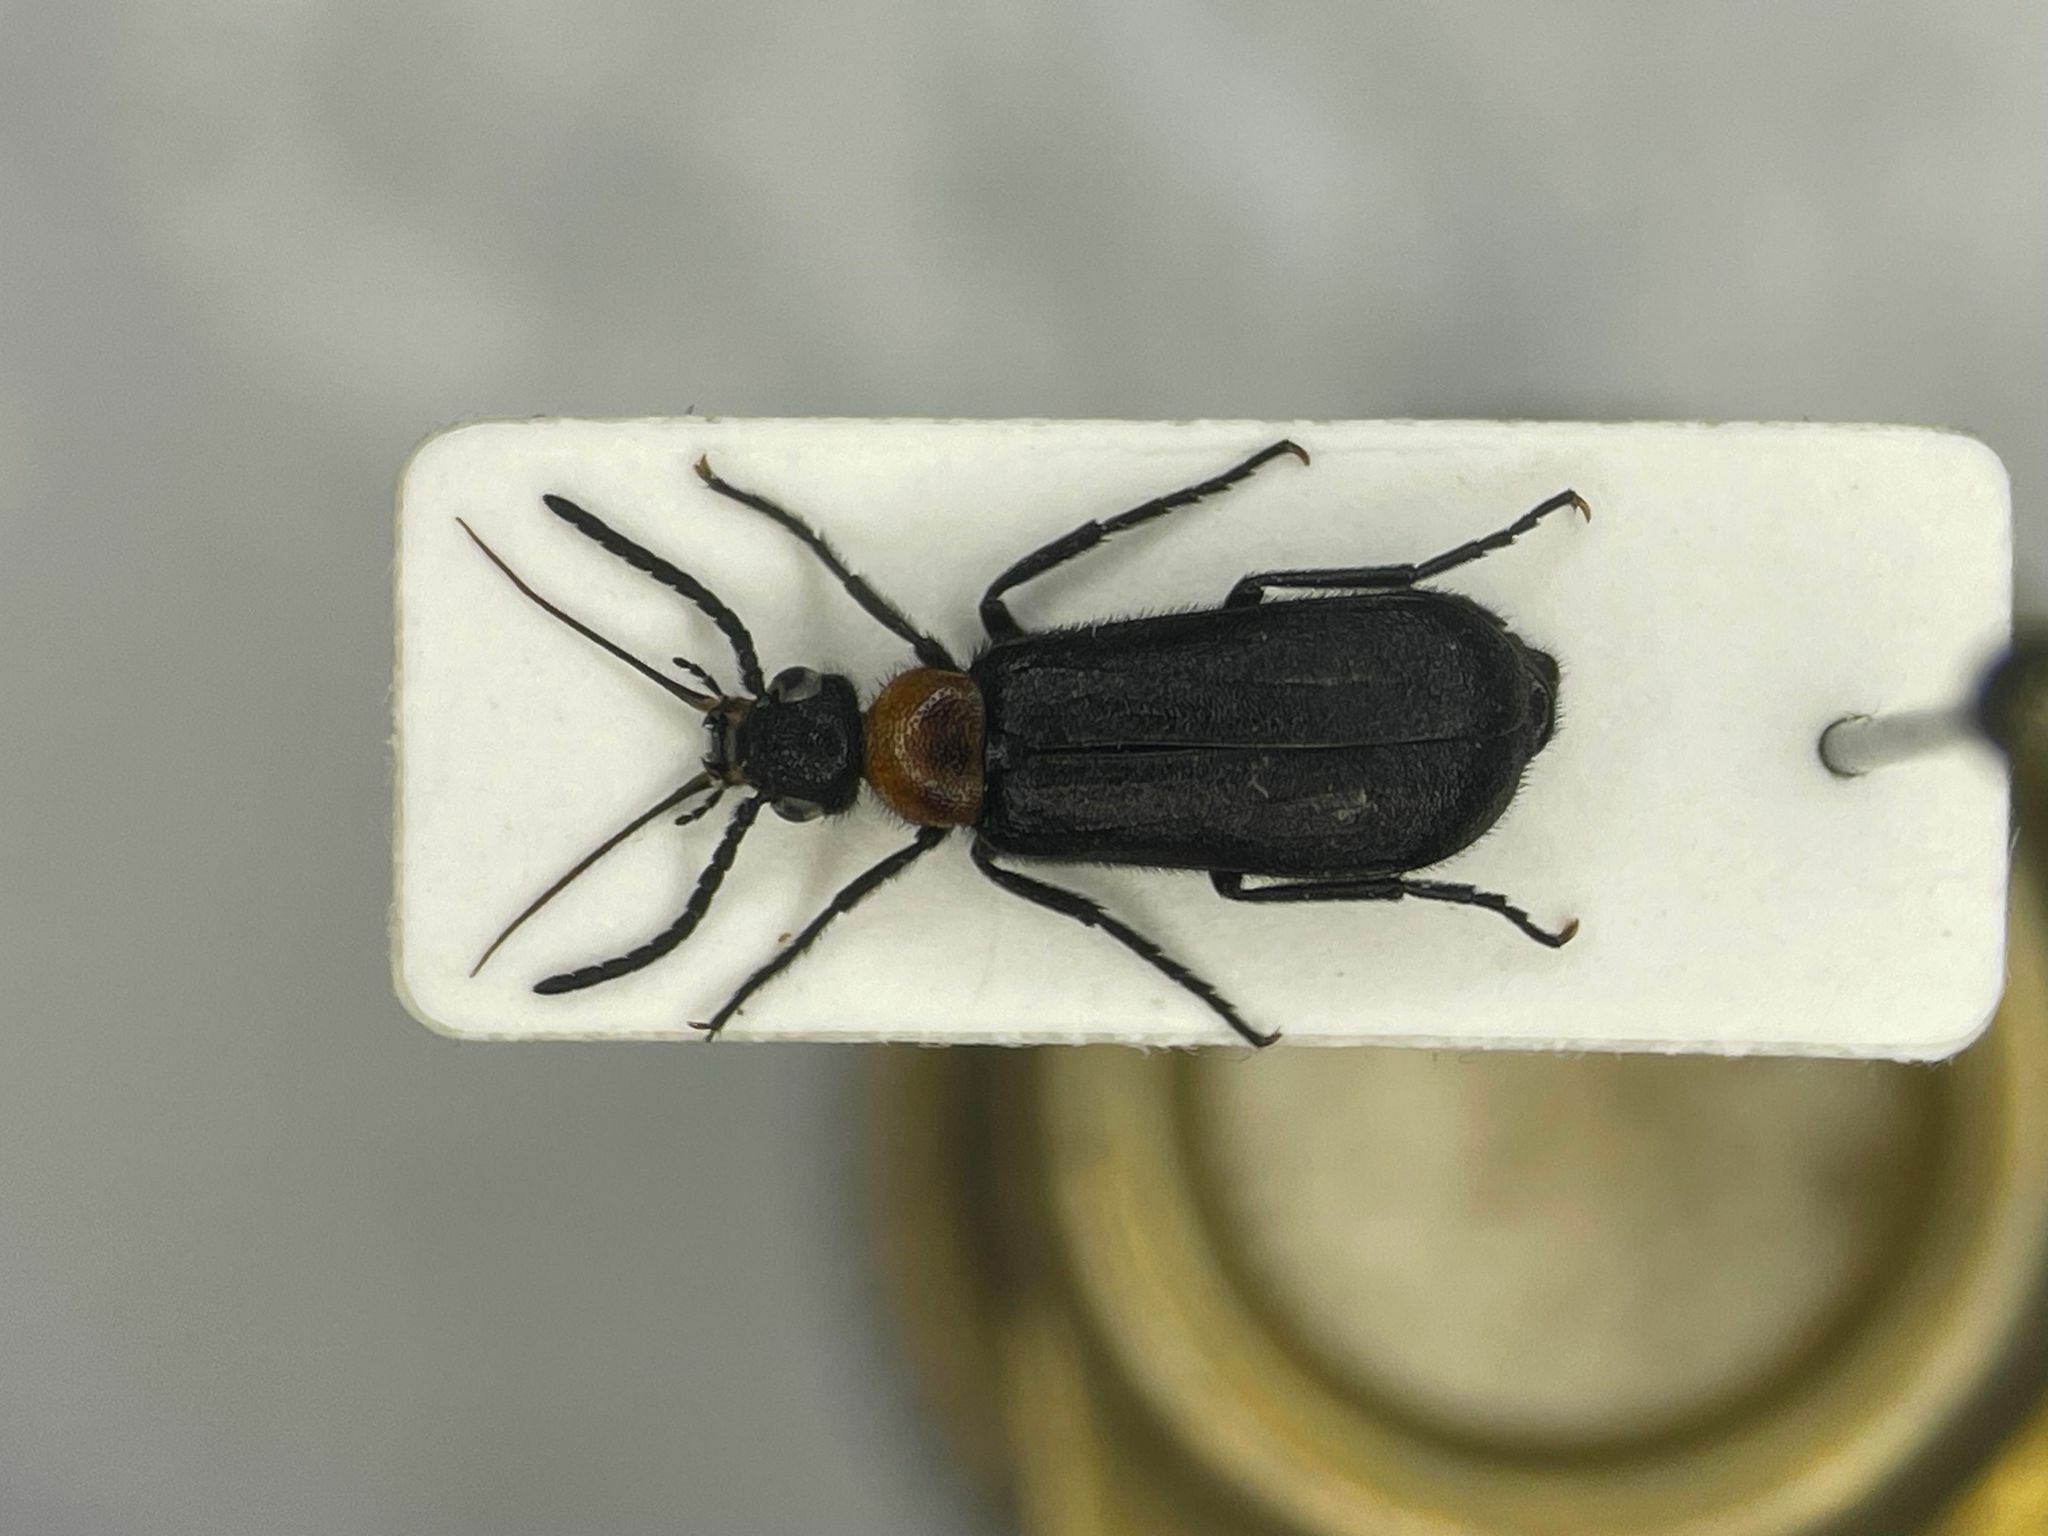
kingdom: Animalia
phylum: Arthropoda
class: Insecta
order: Coleoptera
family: Meloidae
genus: Nemognatha
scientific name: Nemognatha nemorensis
